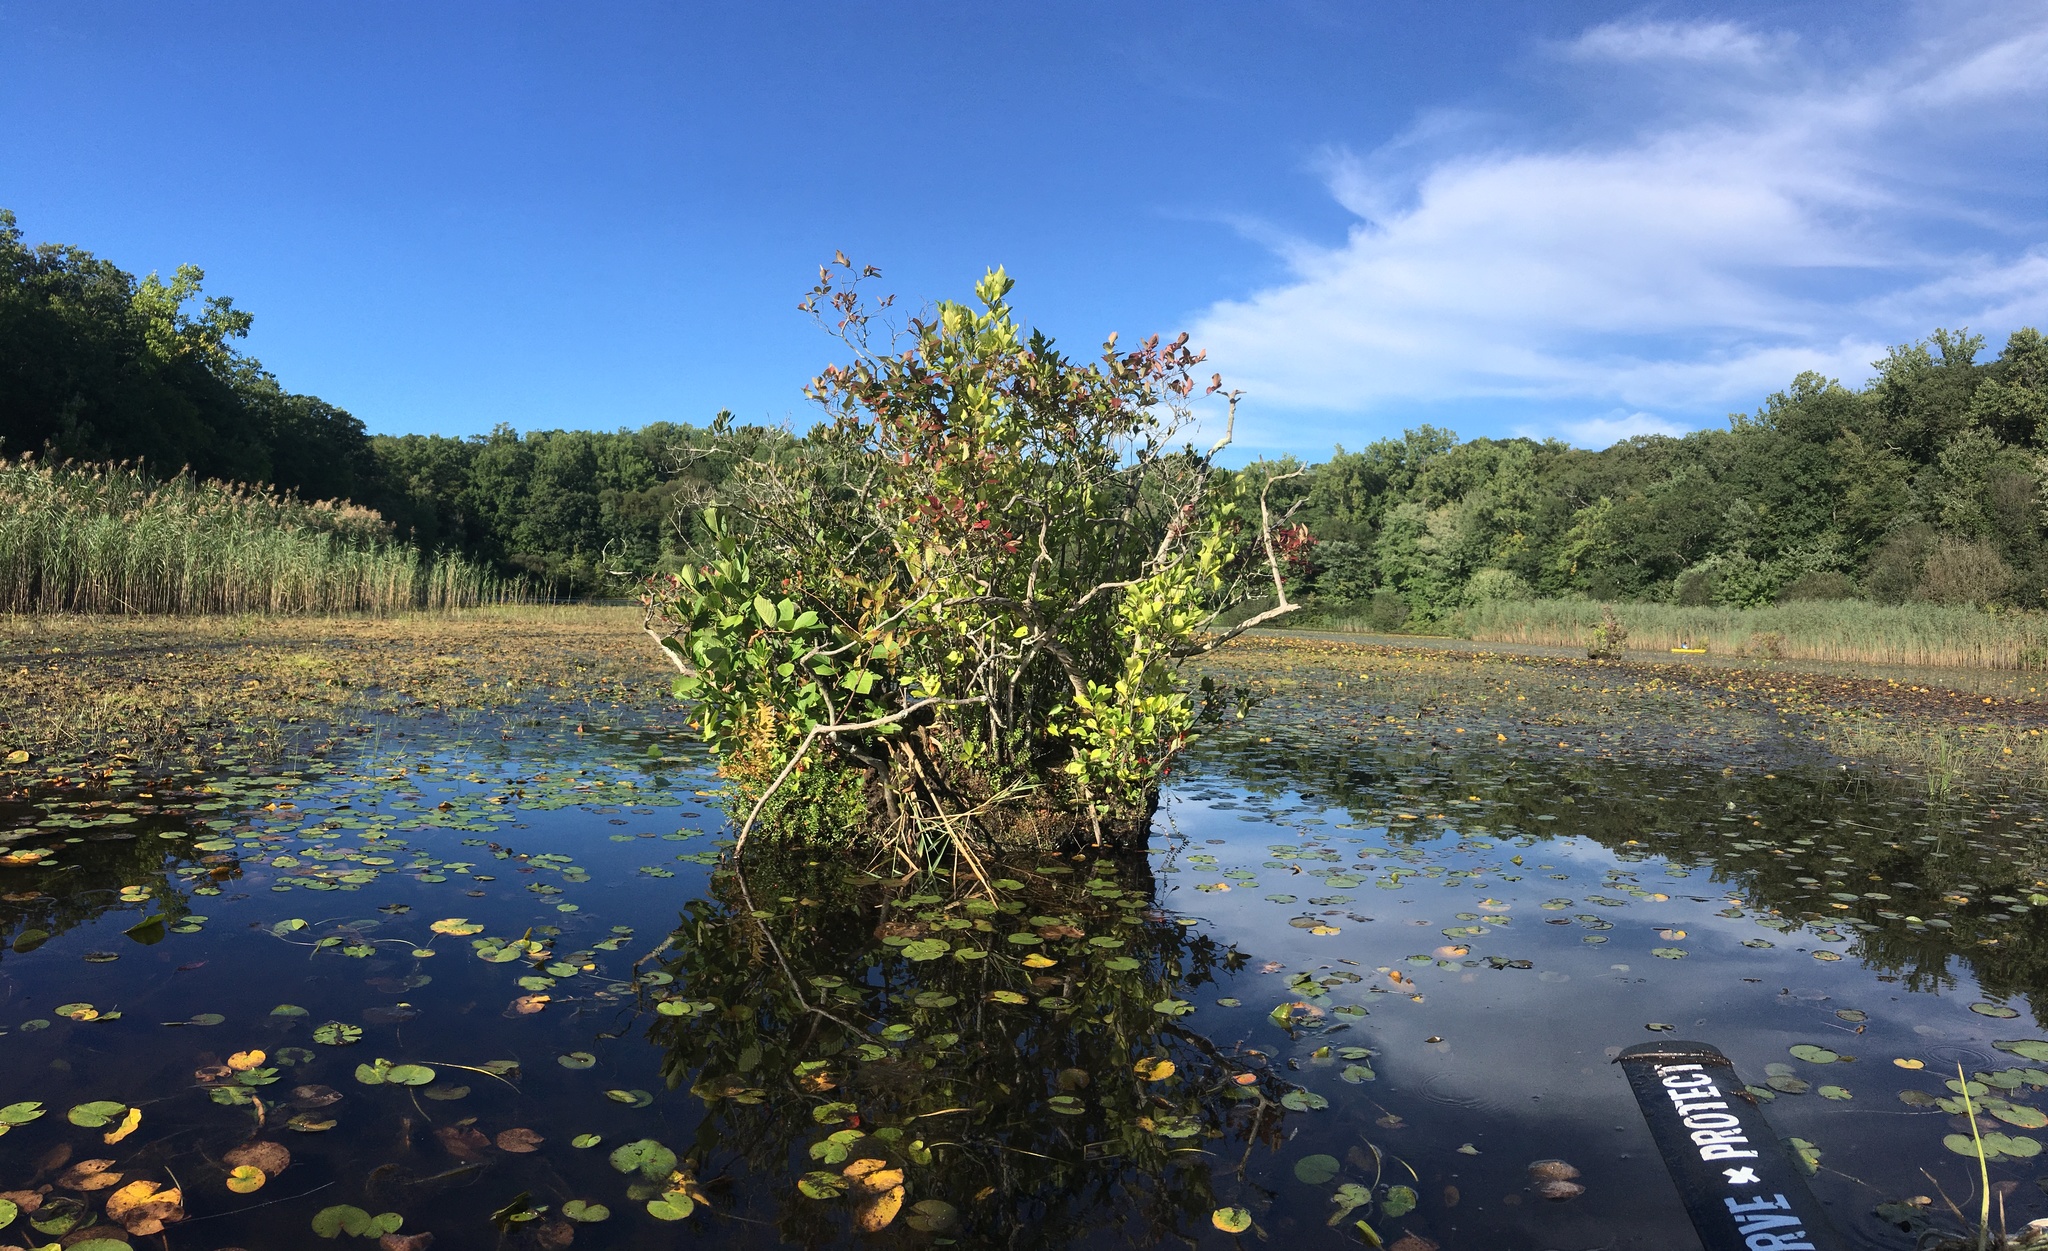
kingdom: Plantae
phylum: Tracheophyta
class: Magnoliopsida
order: Gentianales
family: Rubiaceae
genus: Cephalanthus
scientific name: Cephalanthus occidentalis
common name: Button-willow
